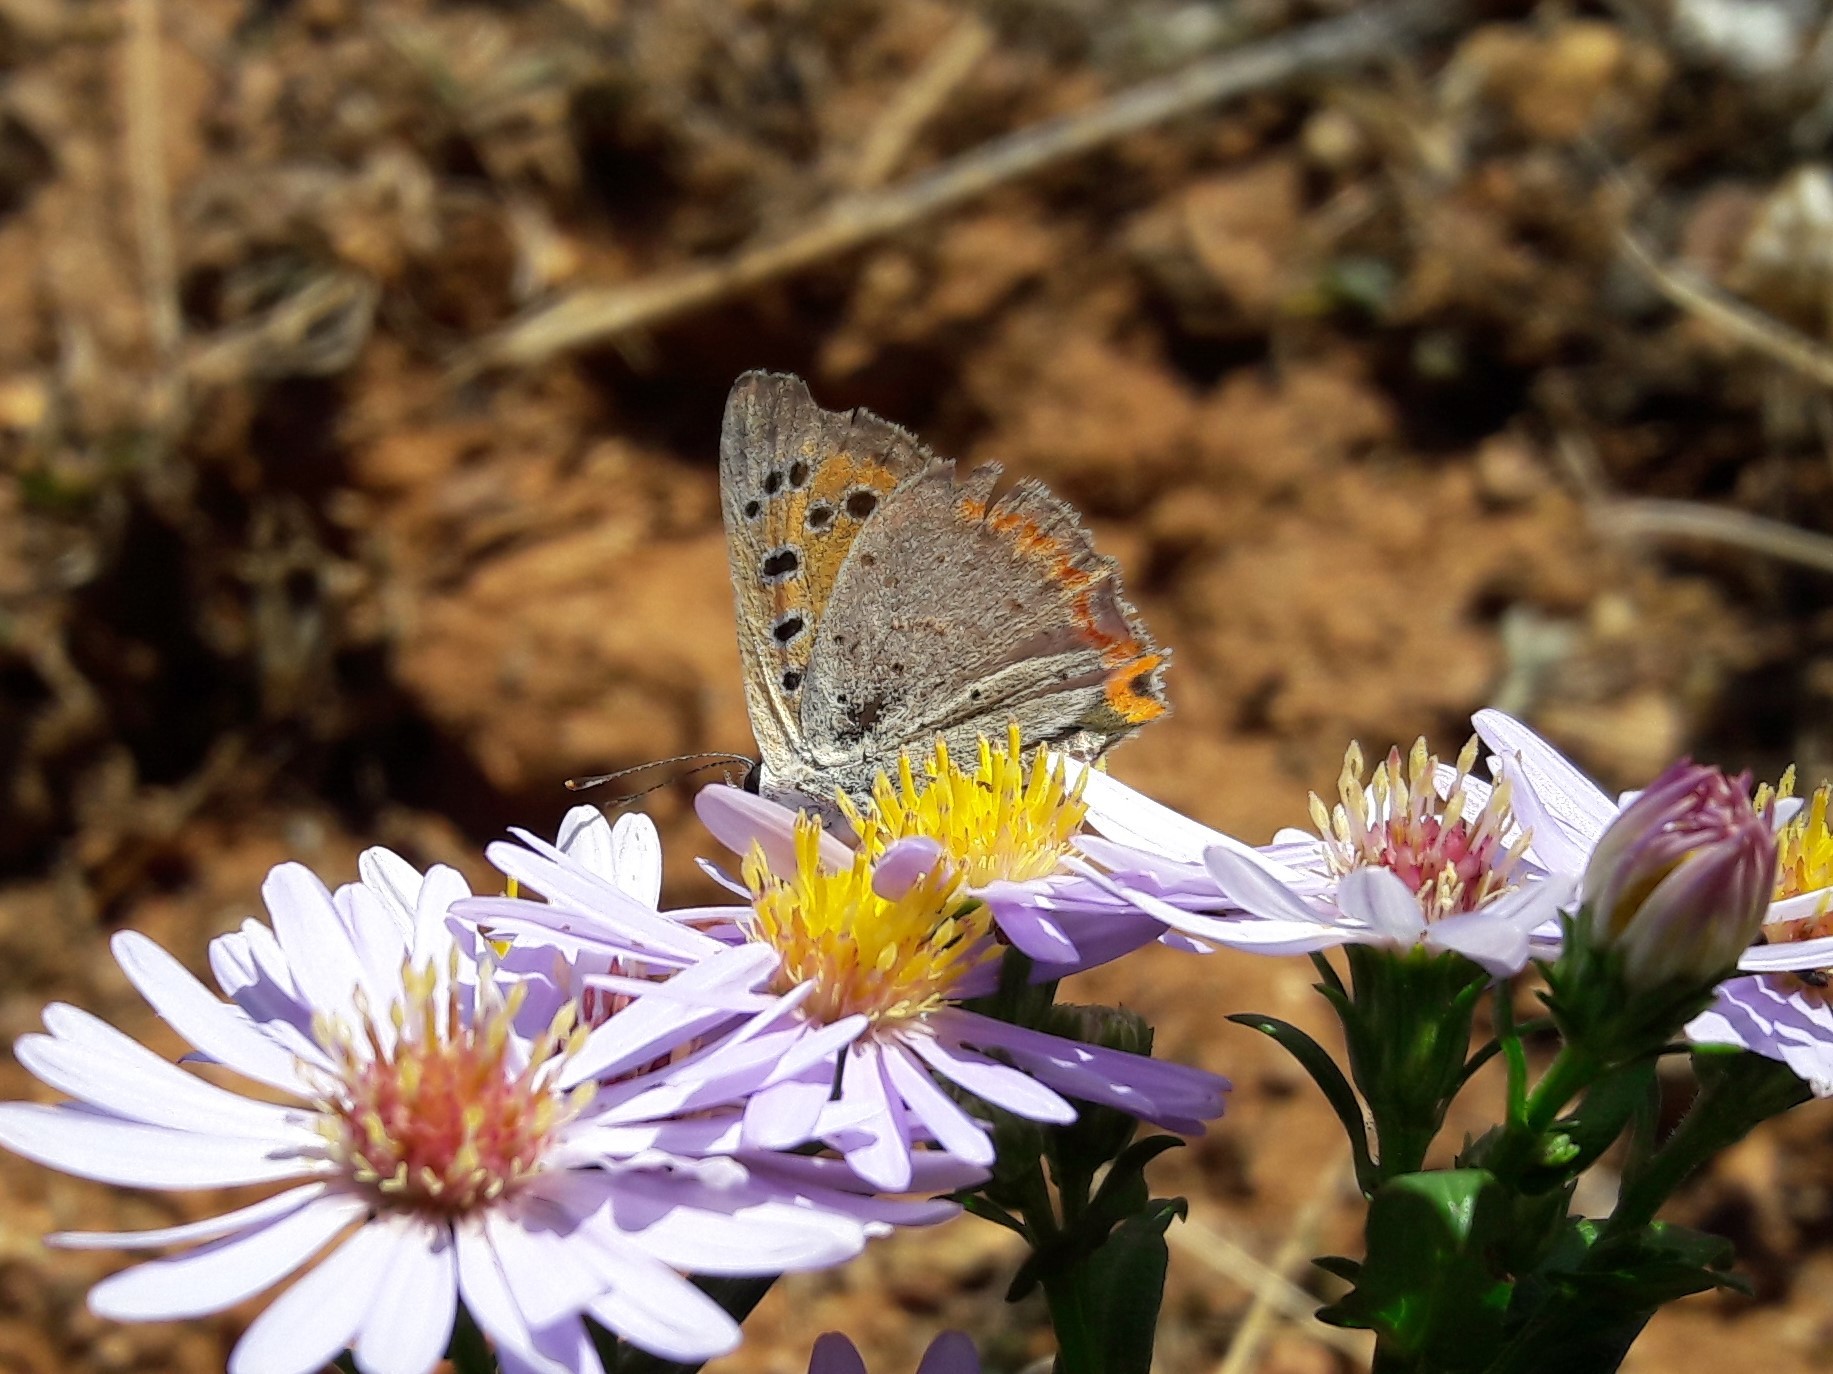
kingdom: Animalia
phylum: Arthropoda
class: Insecta
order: Lepidoptera
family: Lycaenidae
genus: Lycaena
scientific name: Lycaena phlaeas
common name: Small copper
